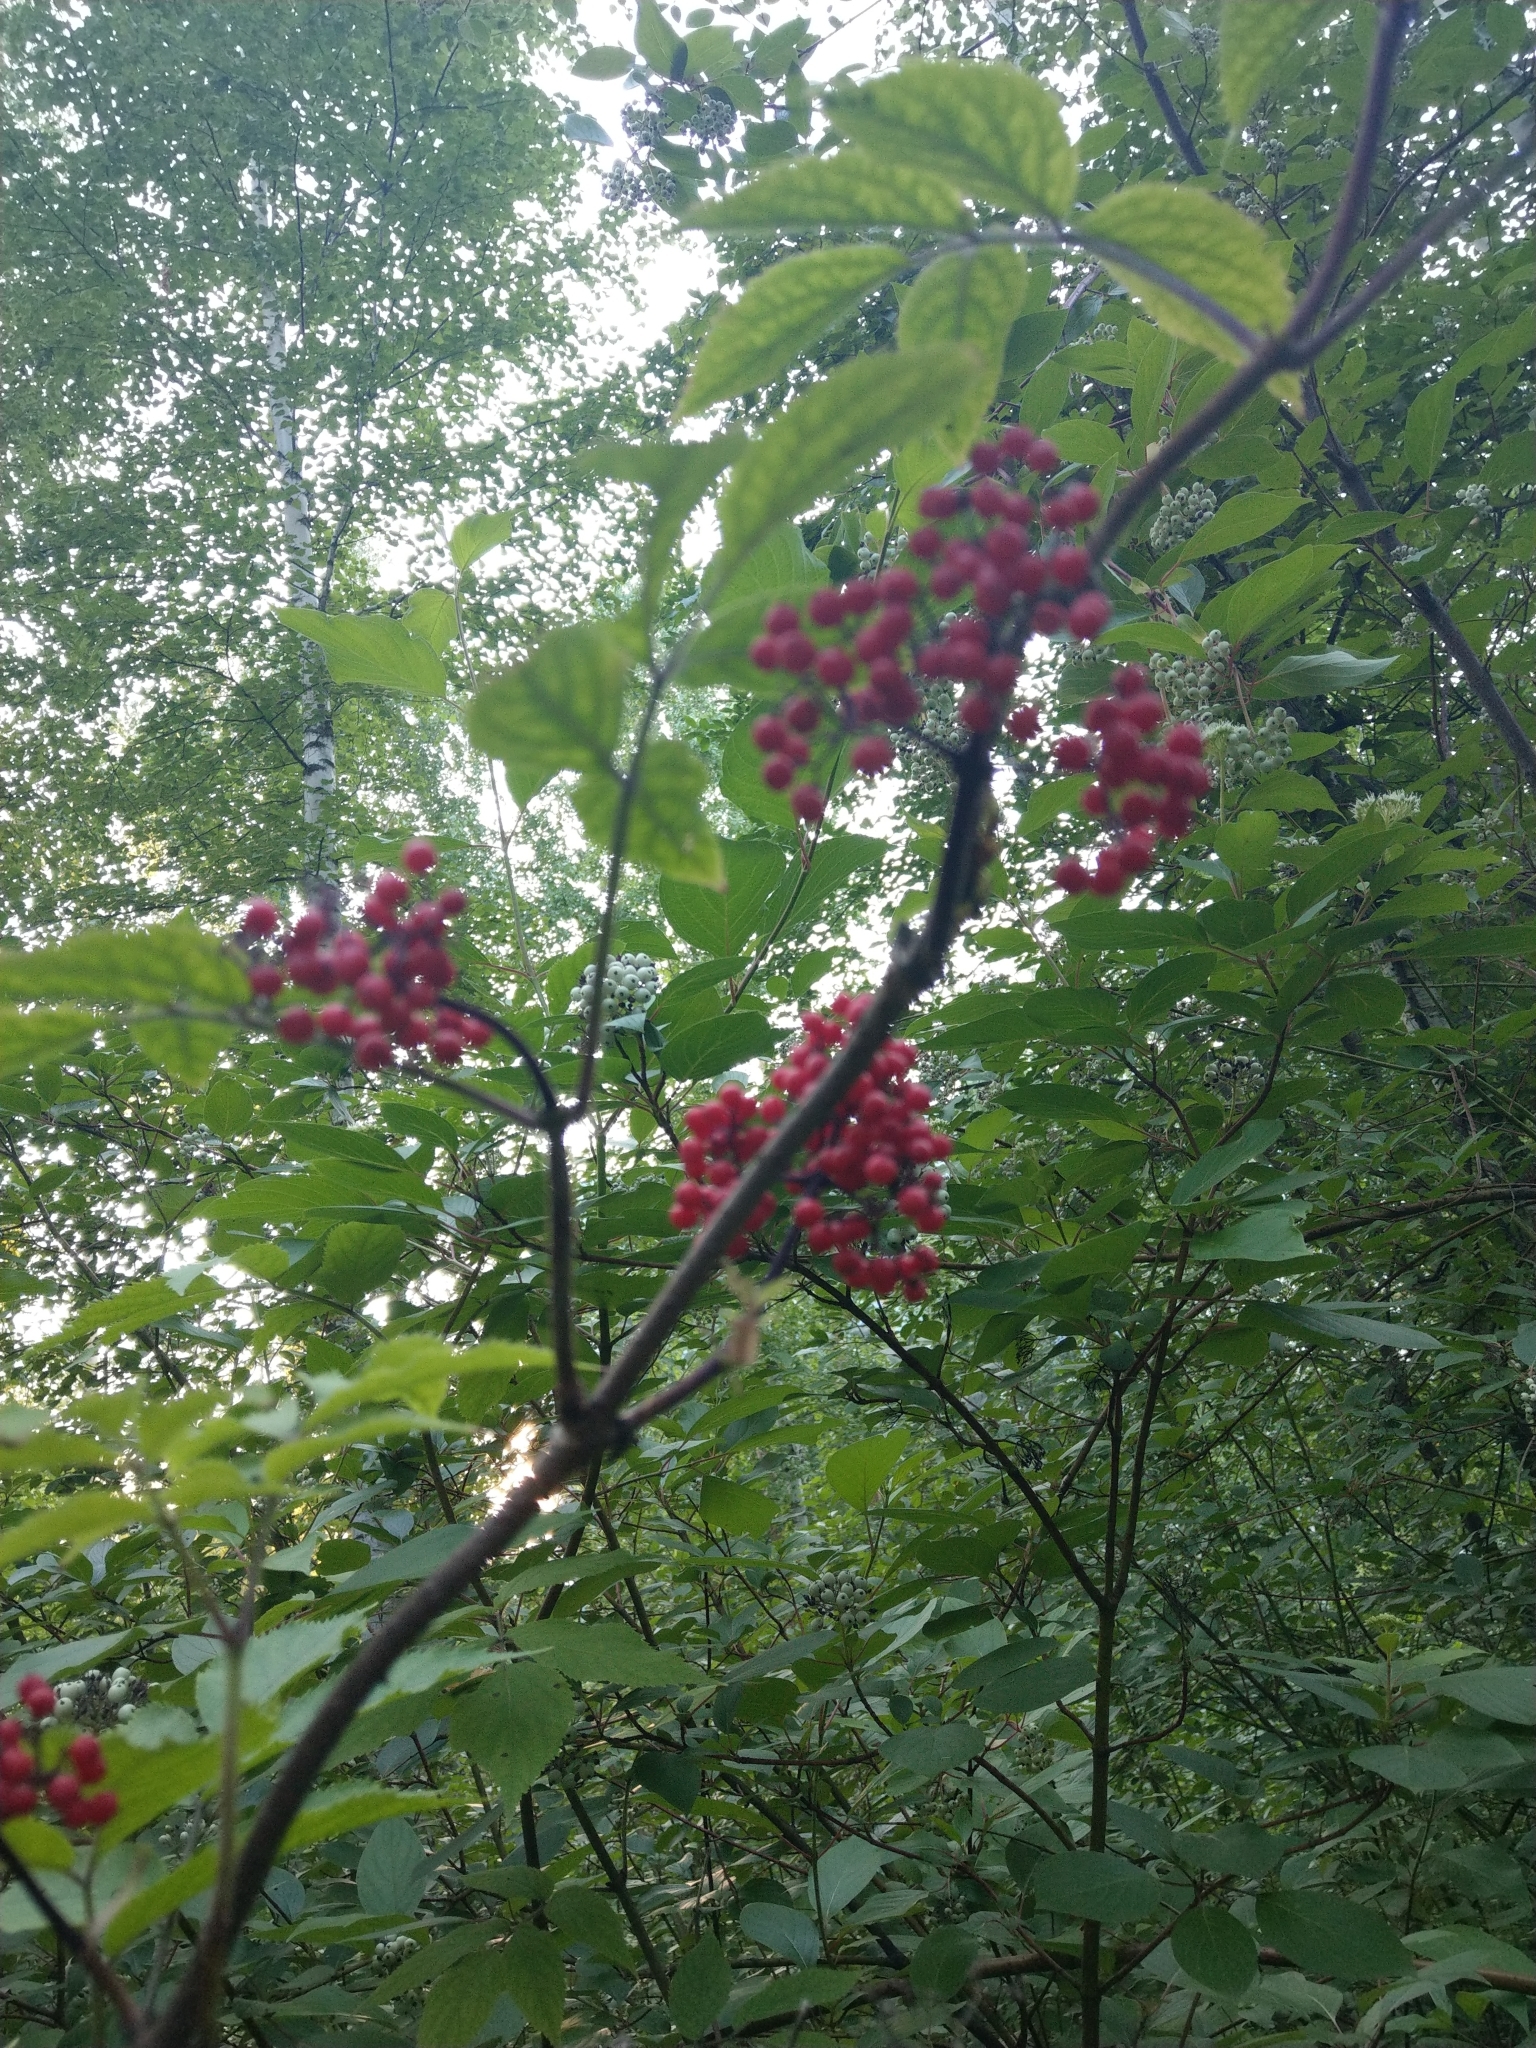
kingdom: Plantae
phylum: Tracheophyta
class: Magnoliopsida
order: Dipsacales
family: Viburnaceae
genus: Sambucus
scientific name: Sambucus sibirica
